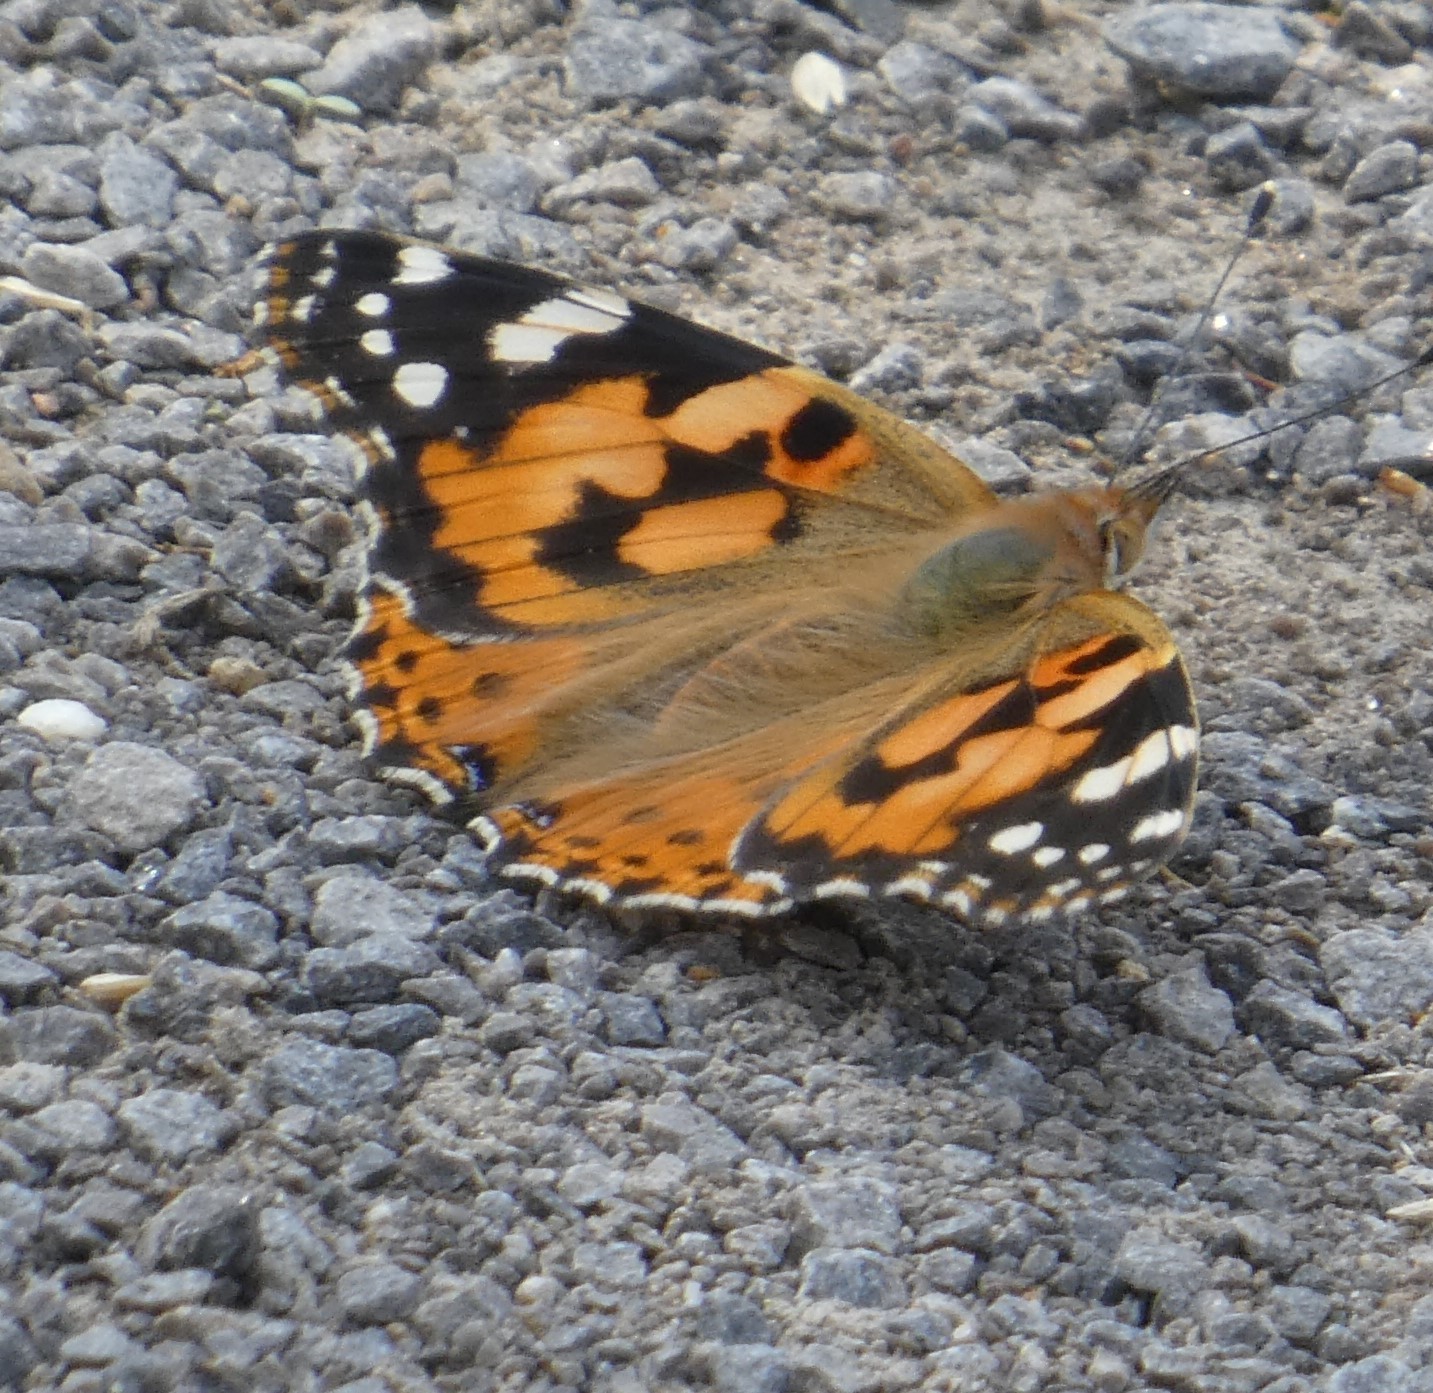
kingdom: Animalia
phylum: Arthropoda
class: Insecta
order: Lepidoptera
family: Nymphalidae
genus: Vanessa
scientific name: Vanessa cardui
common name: Painted lady
